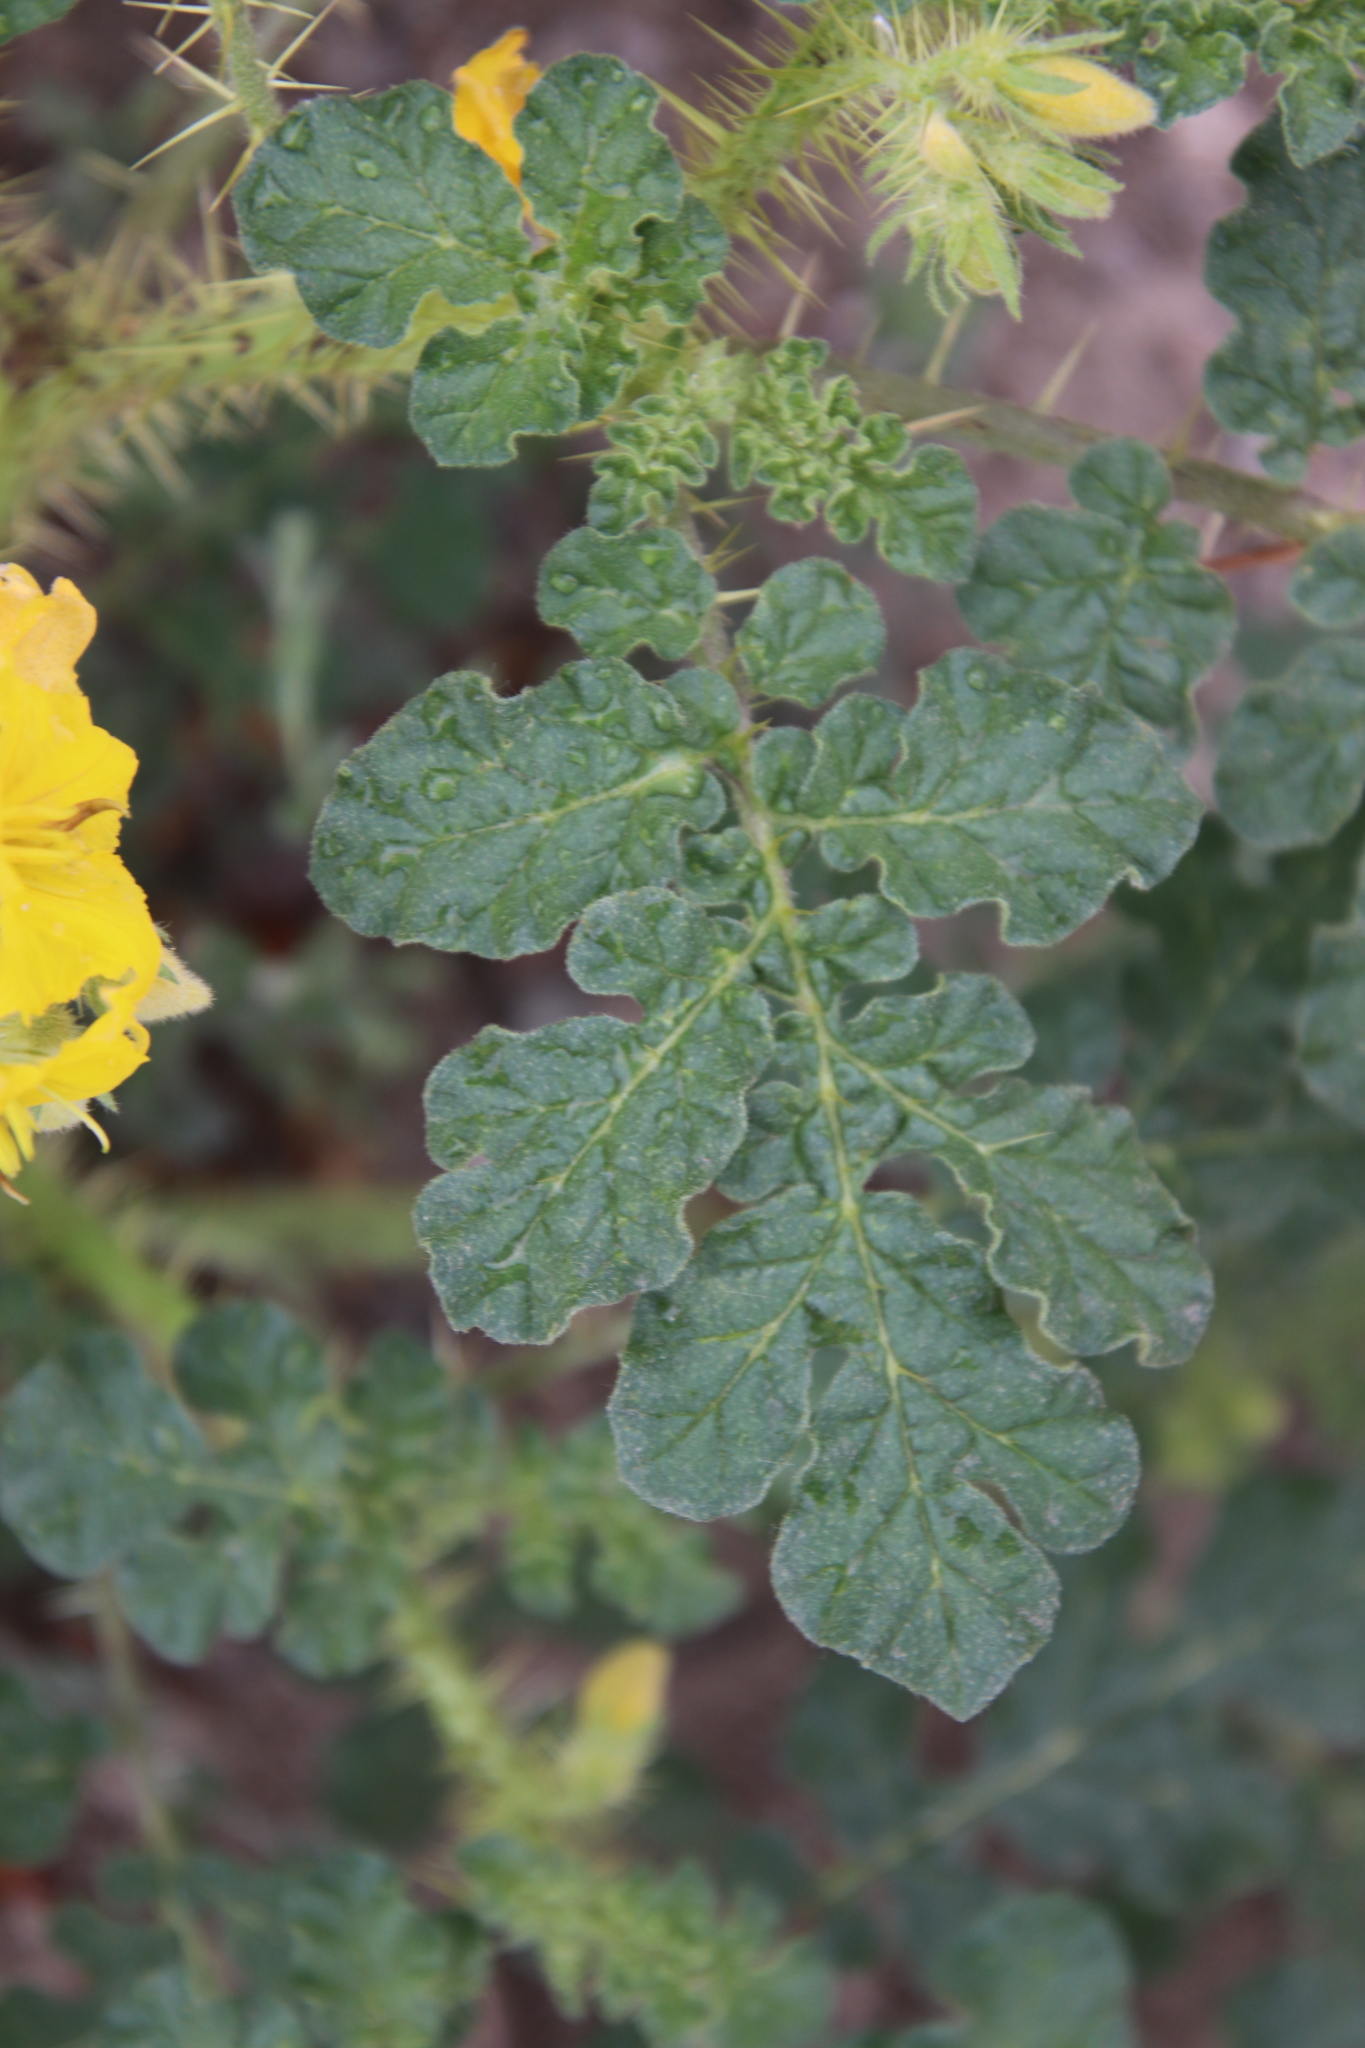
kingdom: Plantae
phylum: Tracheophyta
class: Magnoliopsida
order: Solanales
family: Solanaceae
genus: Solanum
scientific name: Solanum angustifolium
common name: Buffalobur nightshade
